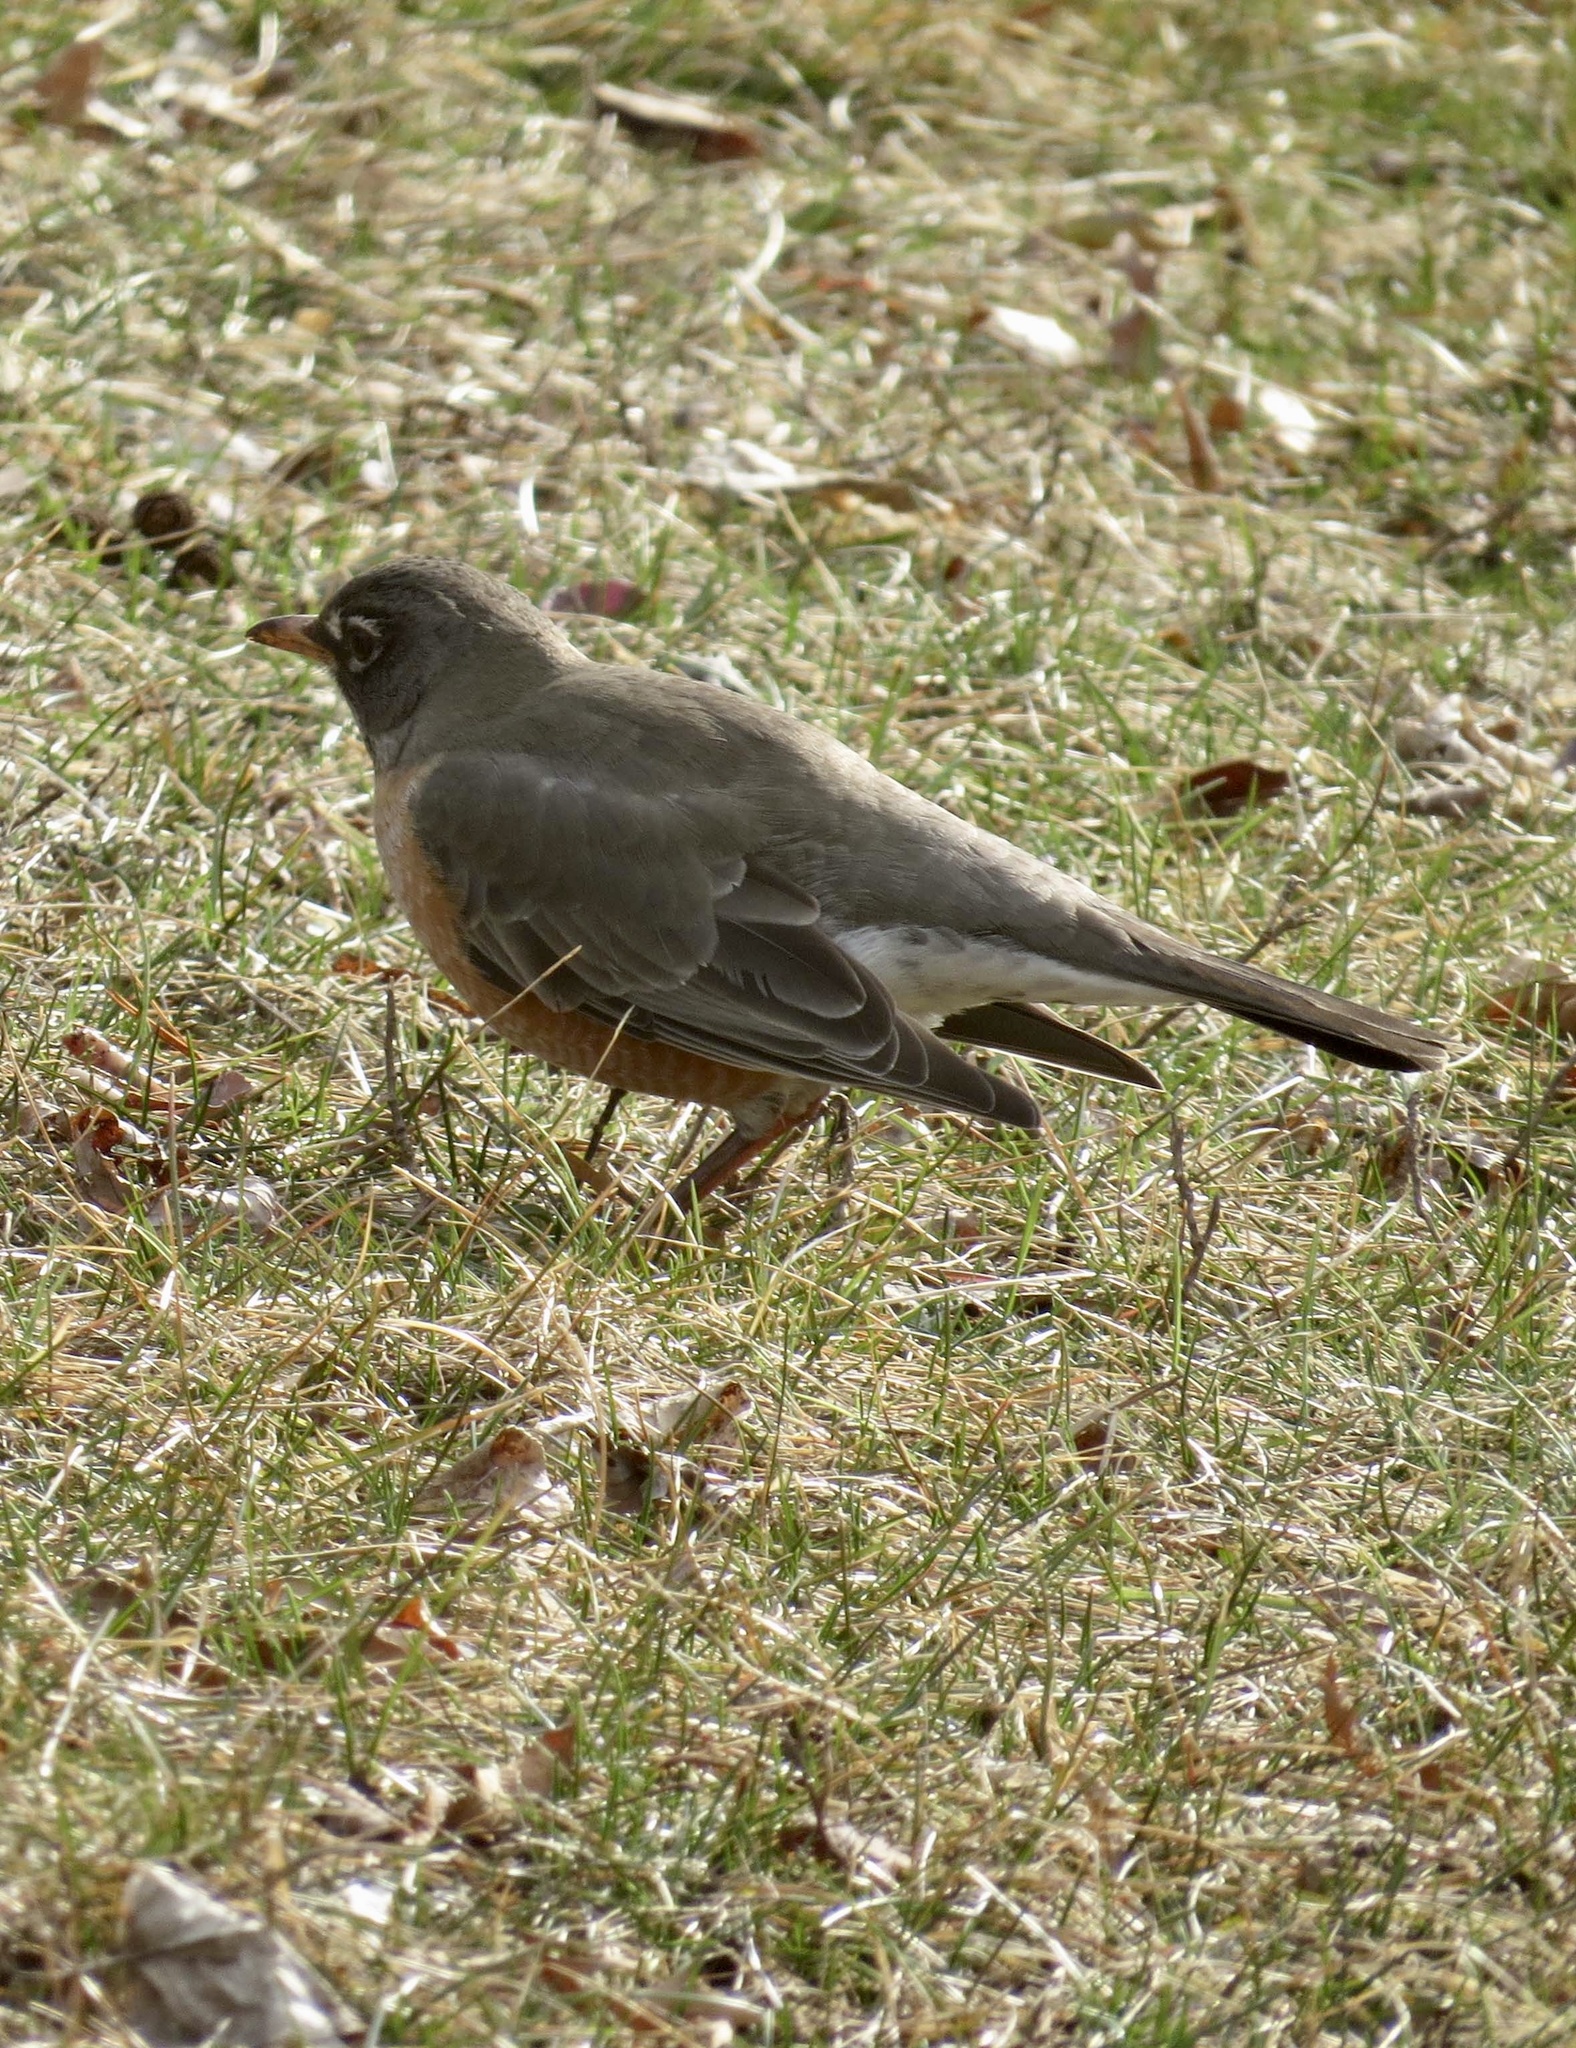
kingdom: Animalia
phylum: Chordata
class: Aves
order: Passeriformes
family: Turdidae
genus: Turdus
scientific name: Turdus migratorius
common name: American robin
